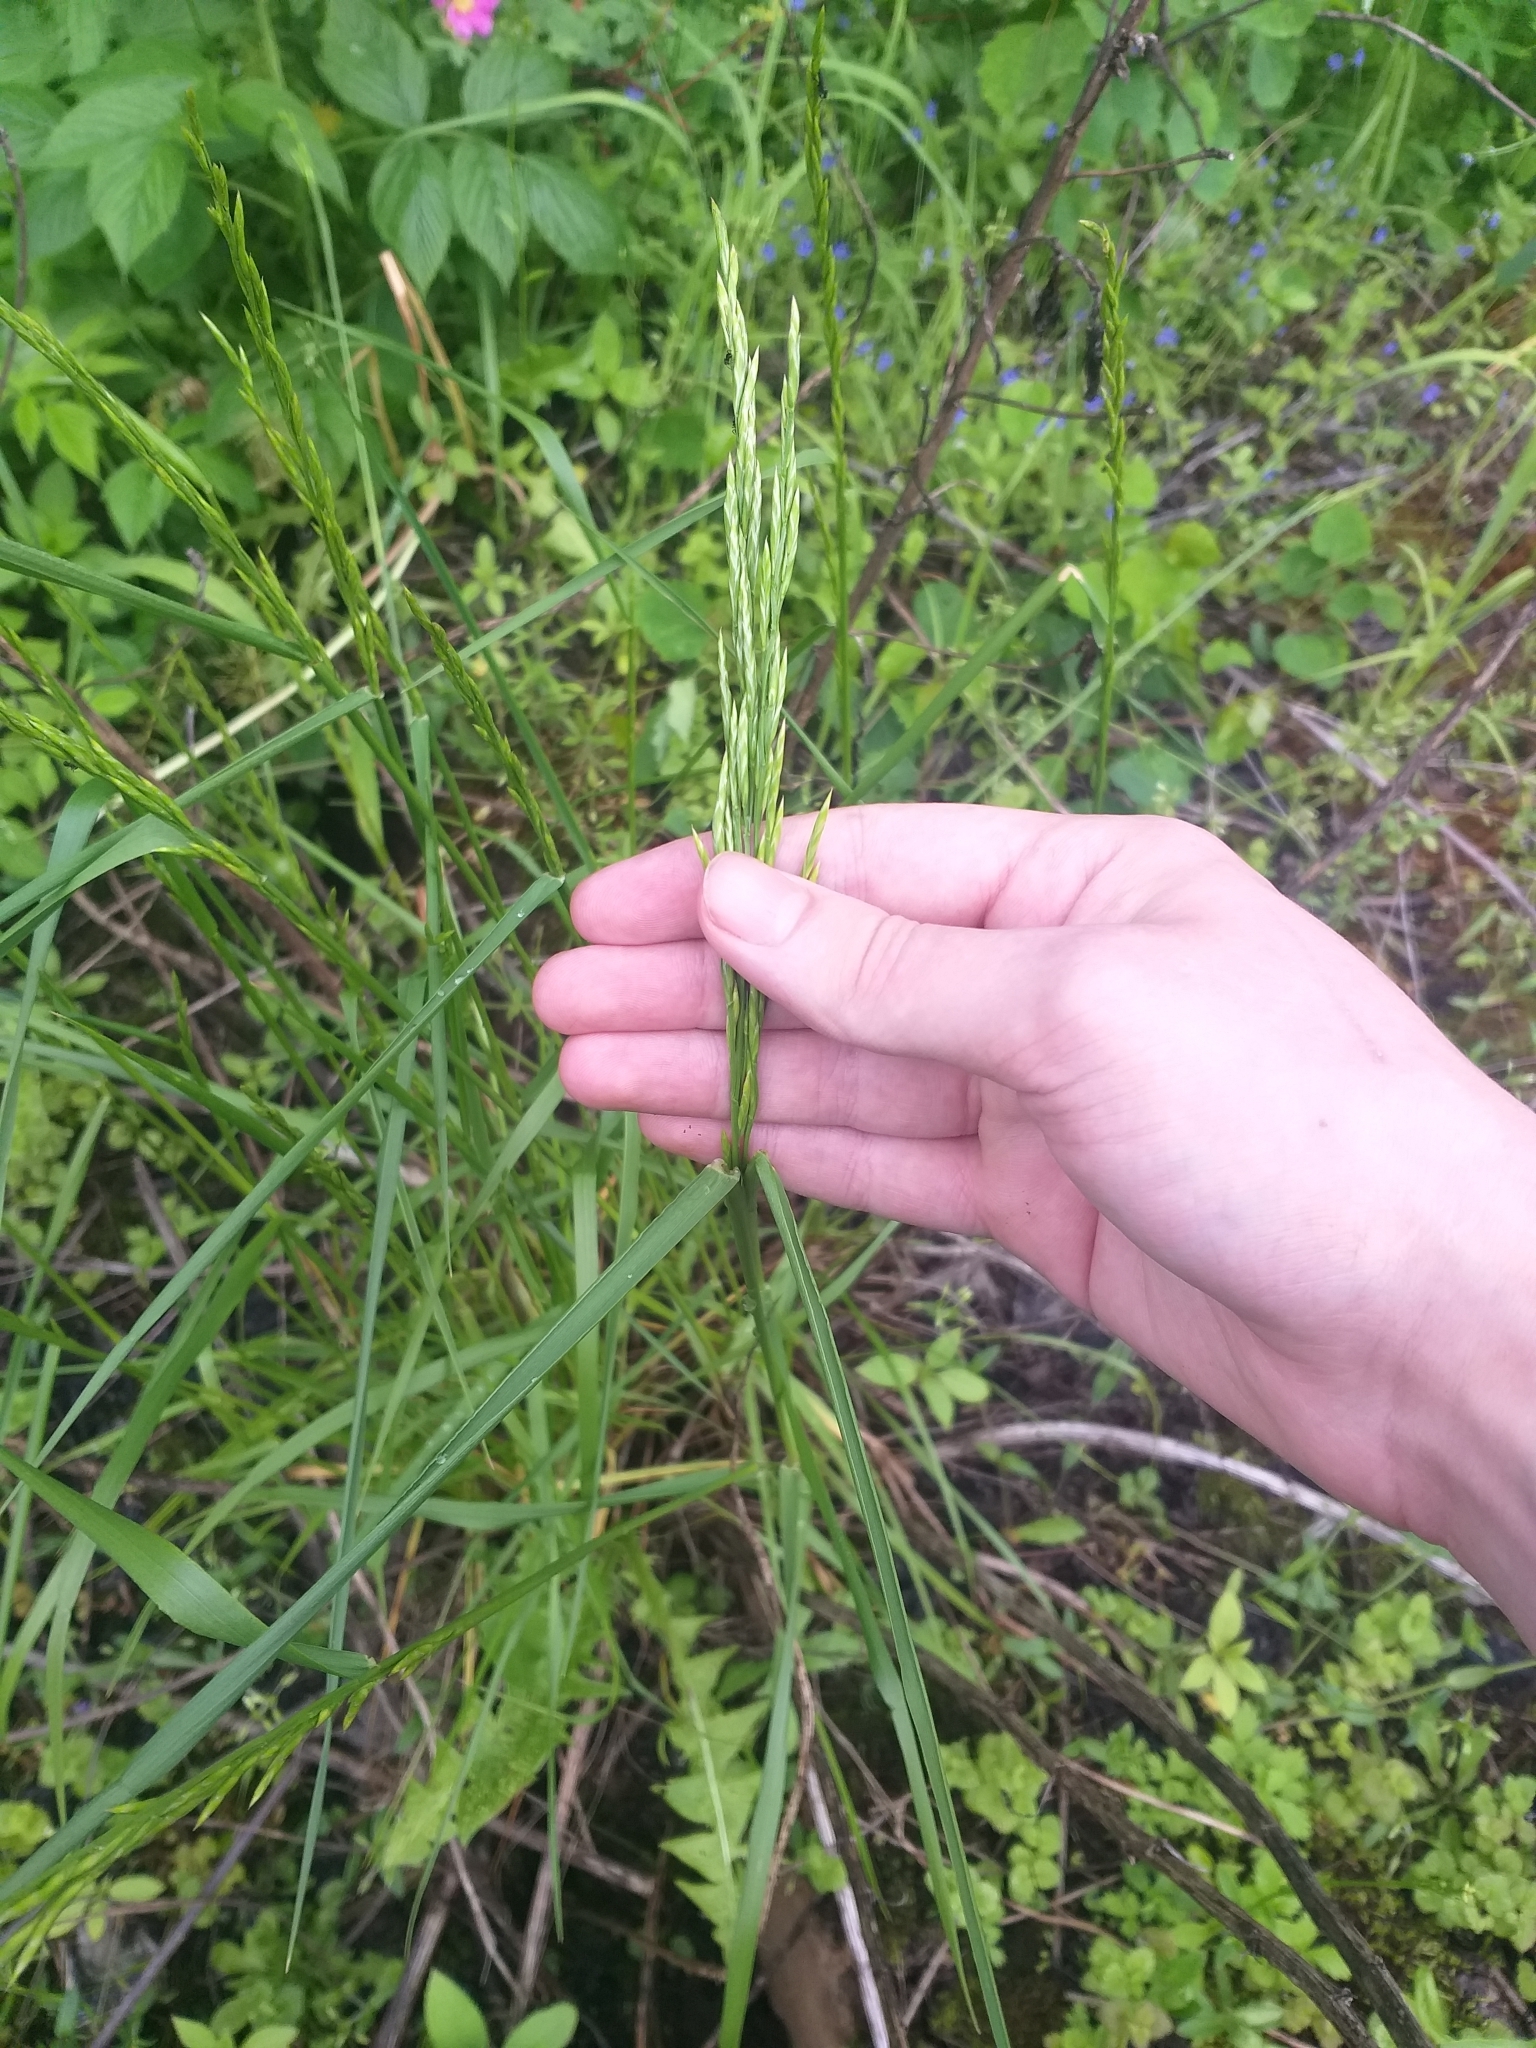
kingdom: Plantae
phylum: Tracheophyta
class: Liliopsida
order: Poales
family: Poaceae
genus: Lolium
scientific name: Lolium arundinaceum
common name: Reed fescue
